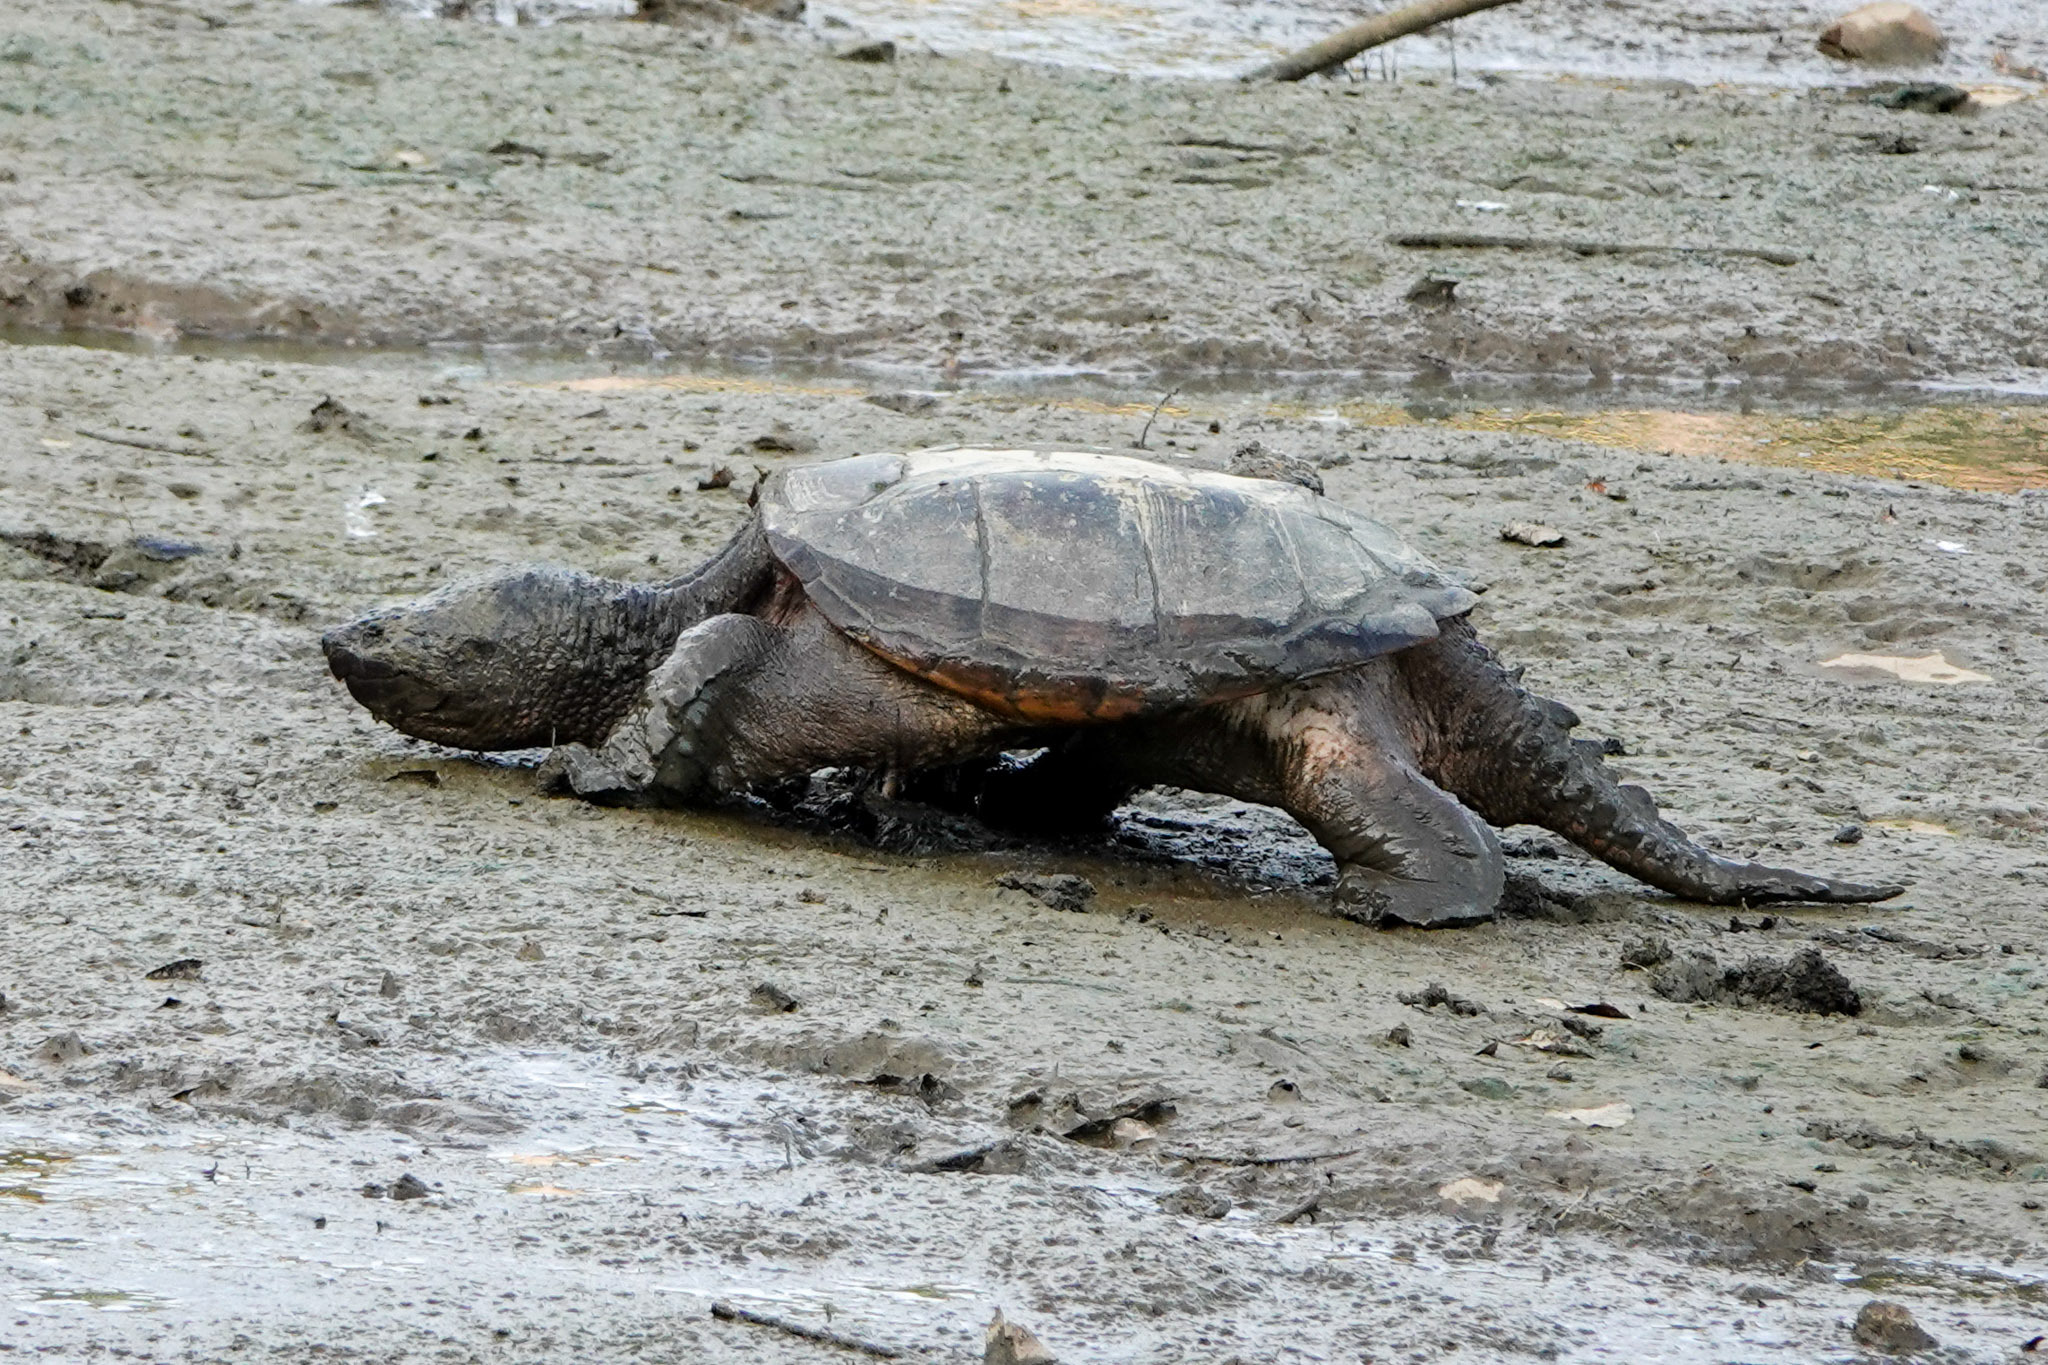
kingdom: Animalia
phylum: Chordata
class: Testudines
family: Chelydridae
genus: Chelydra
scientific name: Chelydra serpentina
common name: Common snapping turtle
